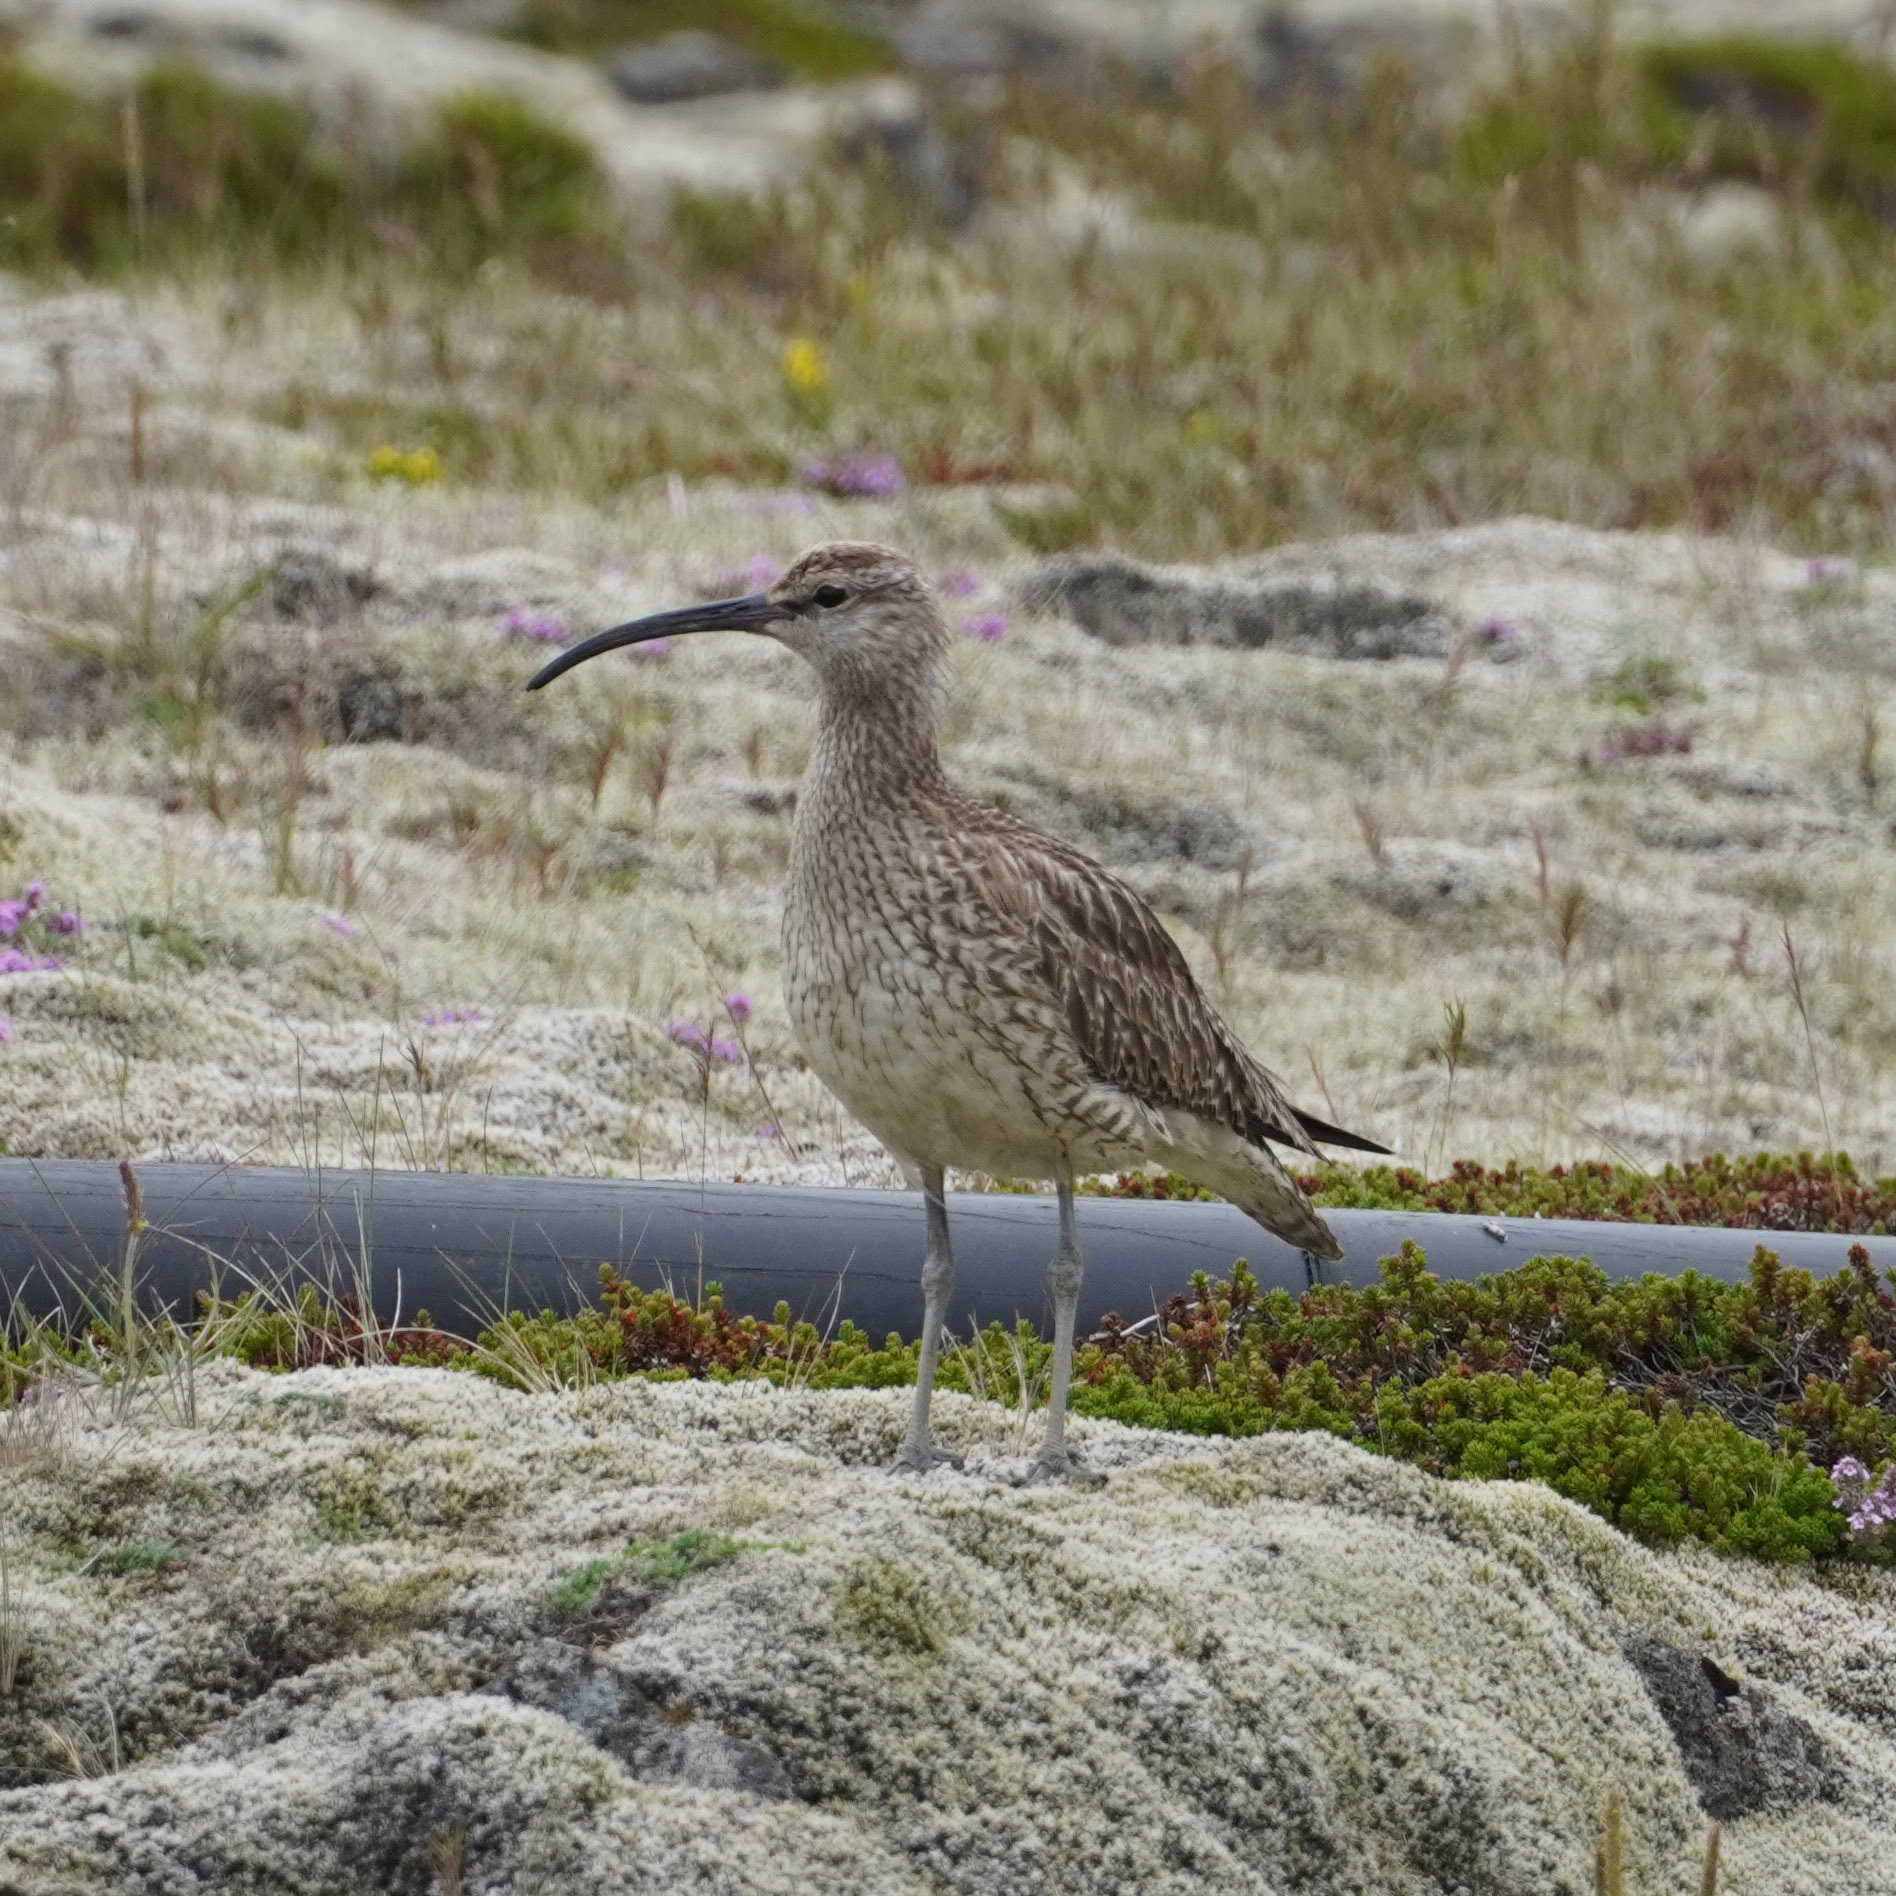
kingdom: Animalia
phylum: Chordata
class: Aves
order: Charadriiformes
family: Scolopacidae
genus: Numenius
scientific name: Numenius phaeopus
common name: Whimbrel
